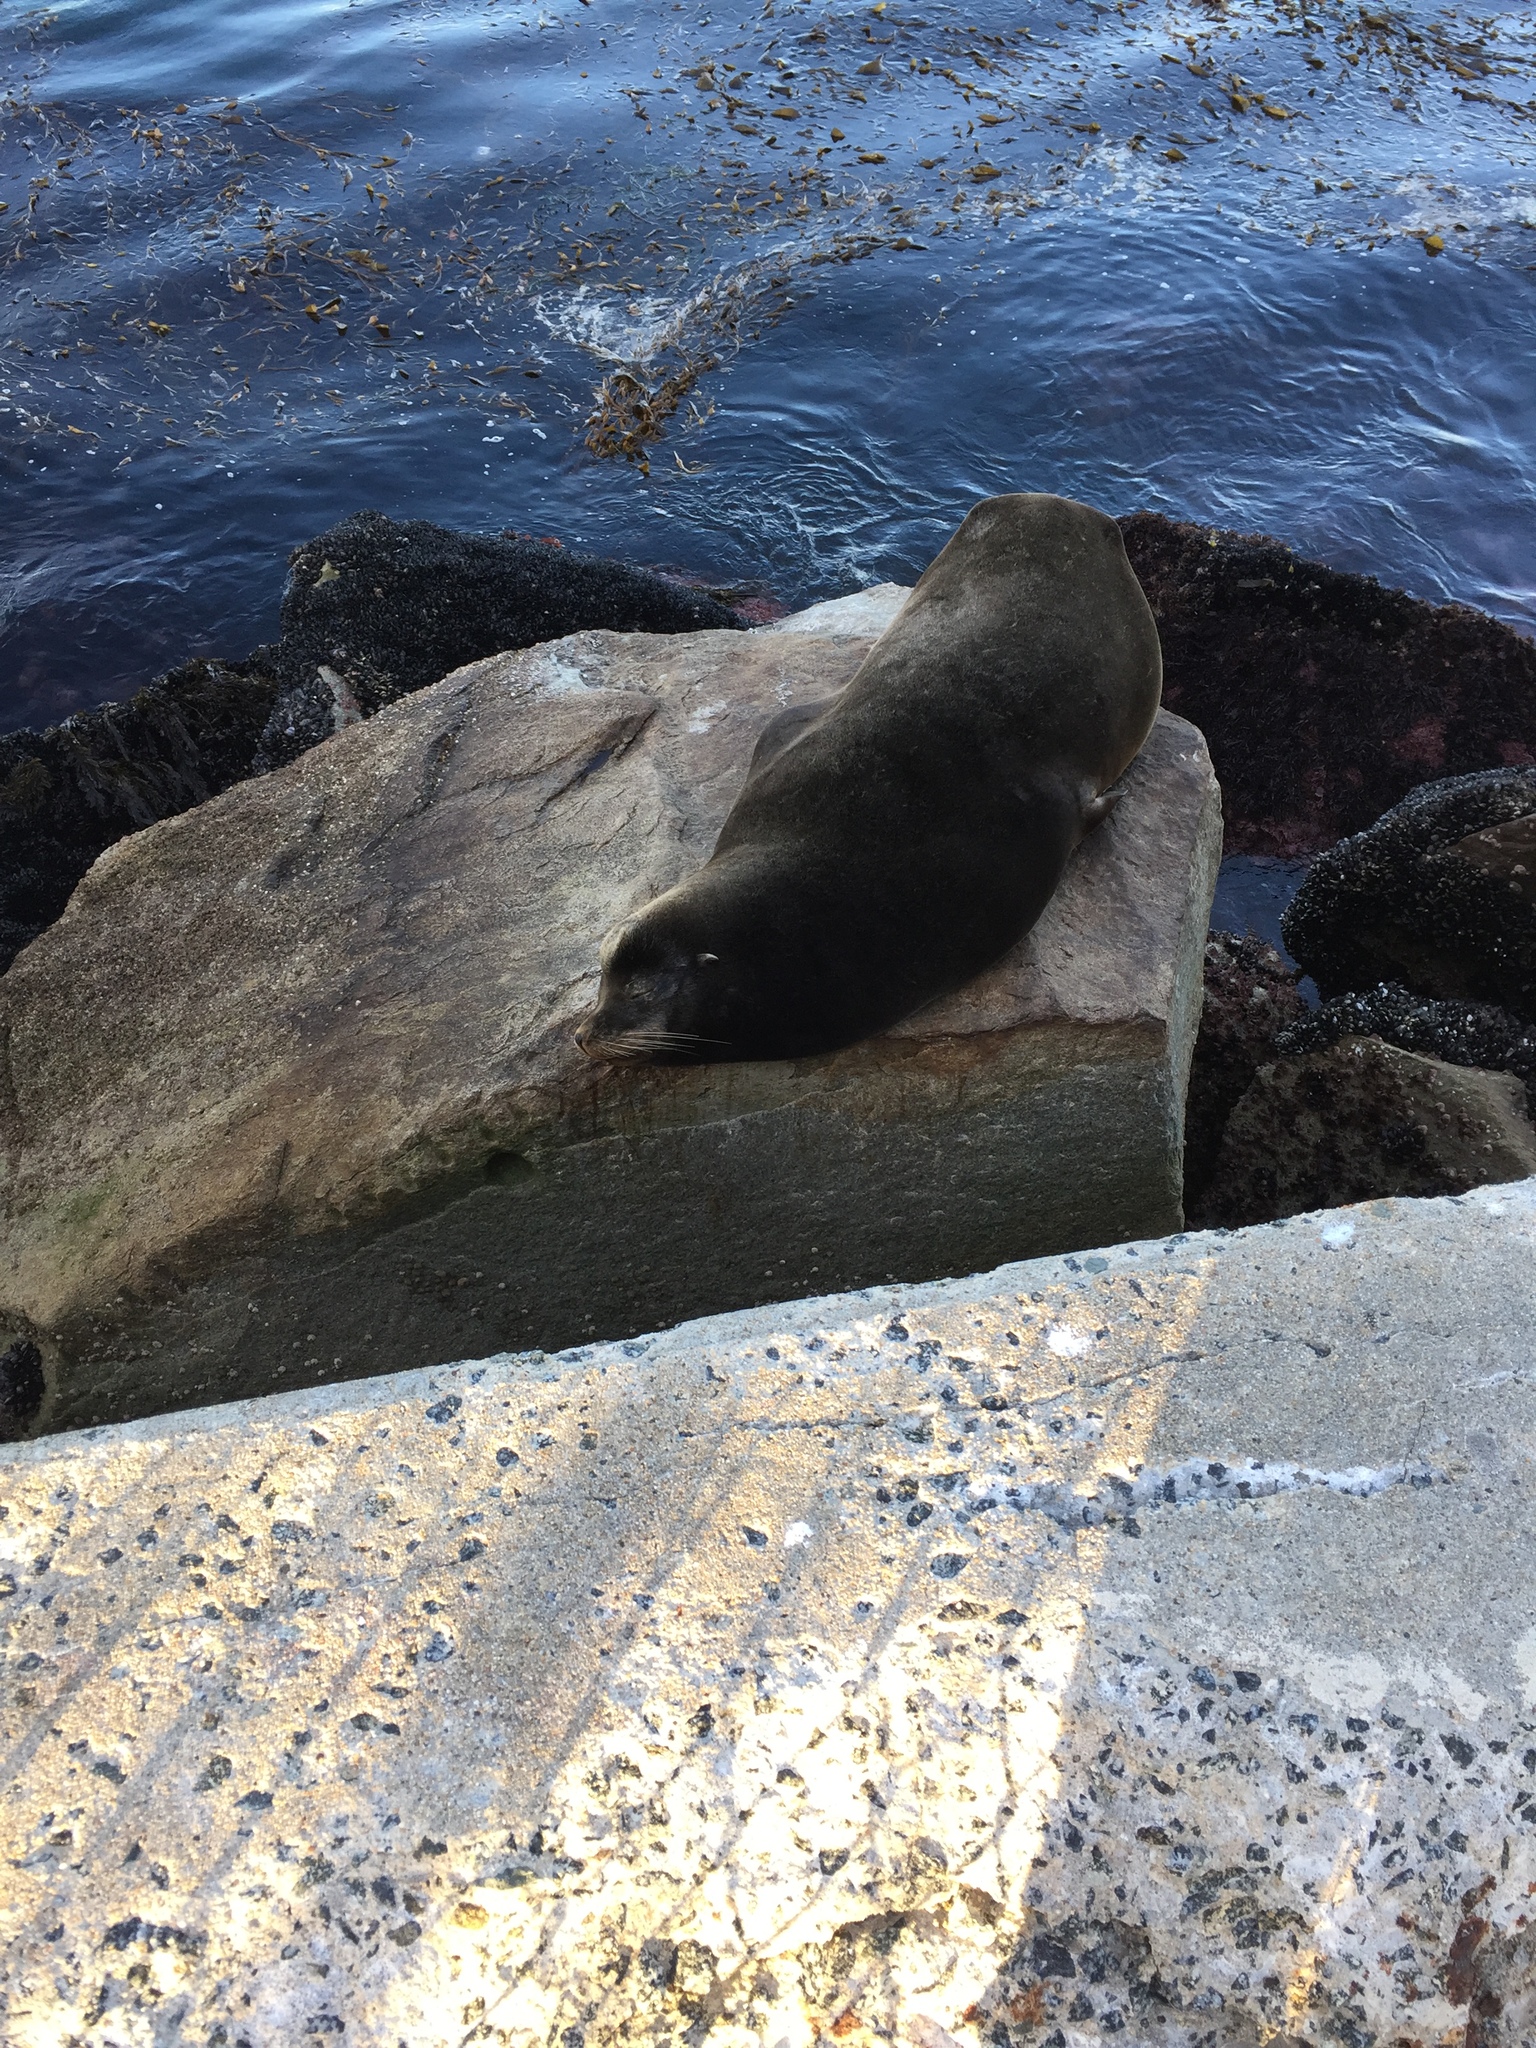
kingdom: Animalia
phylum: Chordata
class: Mammalia
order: Carnivora
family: Otariidae
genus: Zalophus
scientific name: Zalophus californianus
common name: California sea lion
